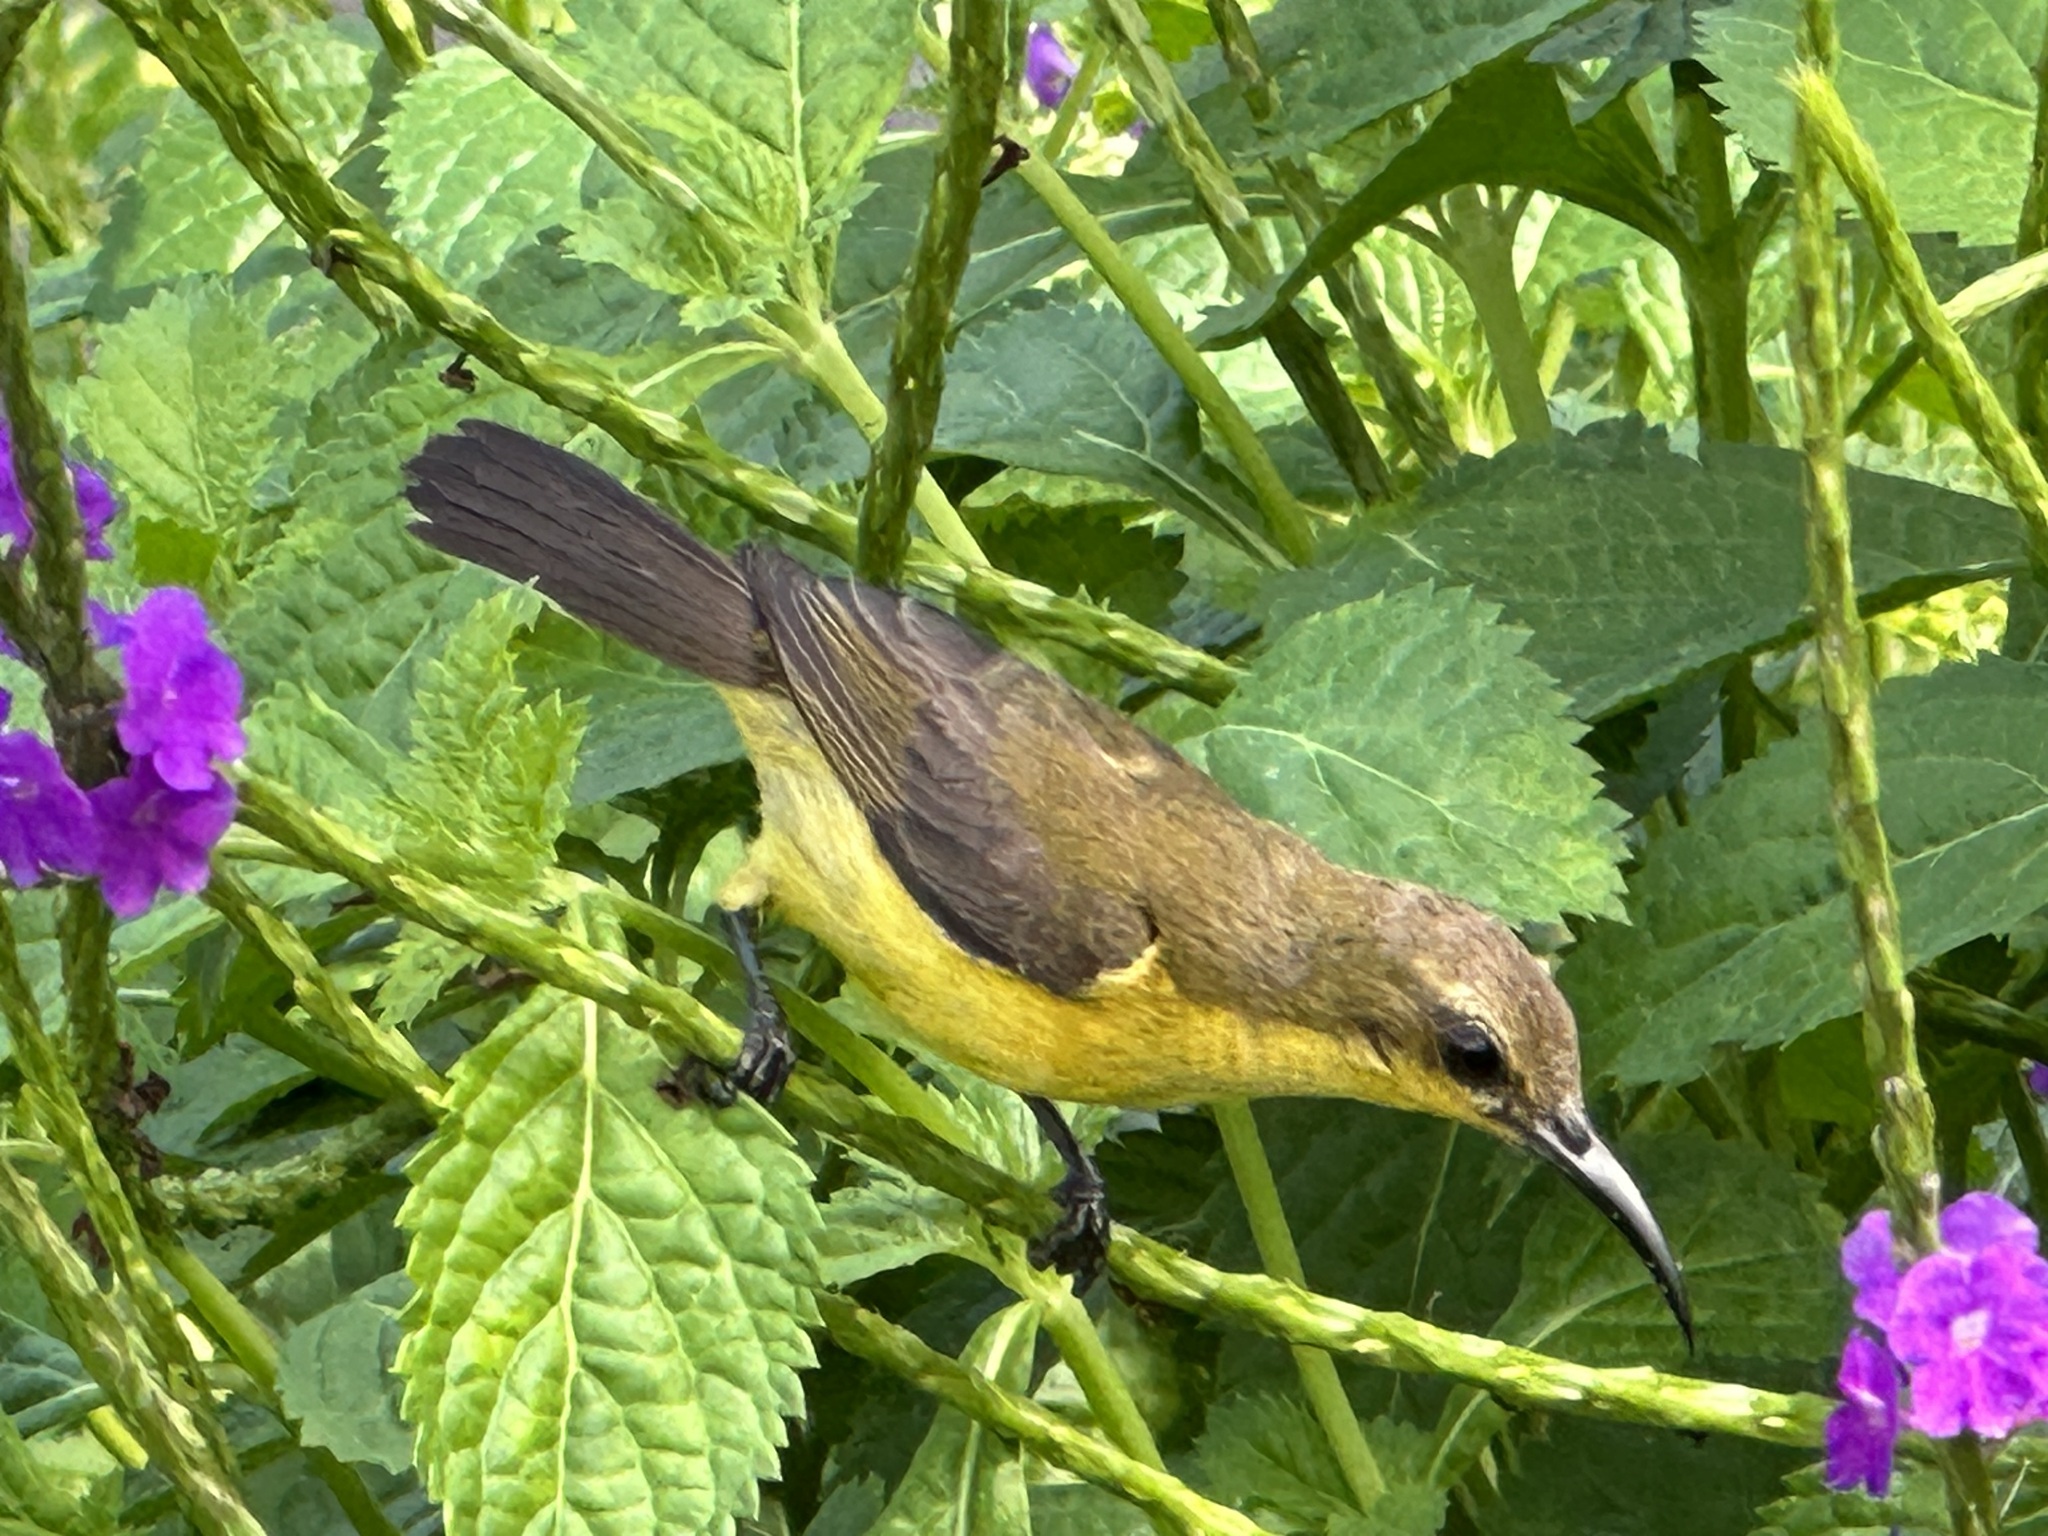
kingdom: Animalia
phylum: Chordata
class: Aves
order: Passeriformes
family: Nectariniidae
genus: Cinnyris
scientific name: Cinnyris
